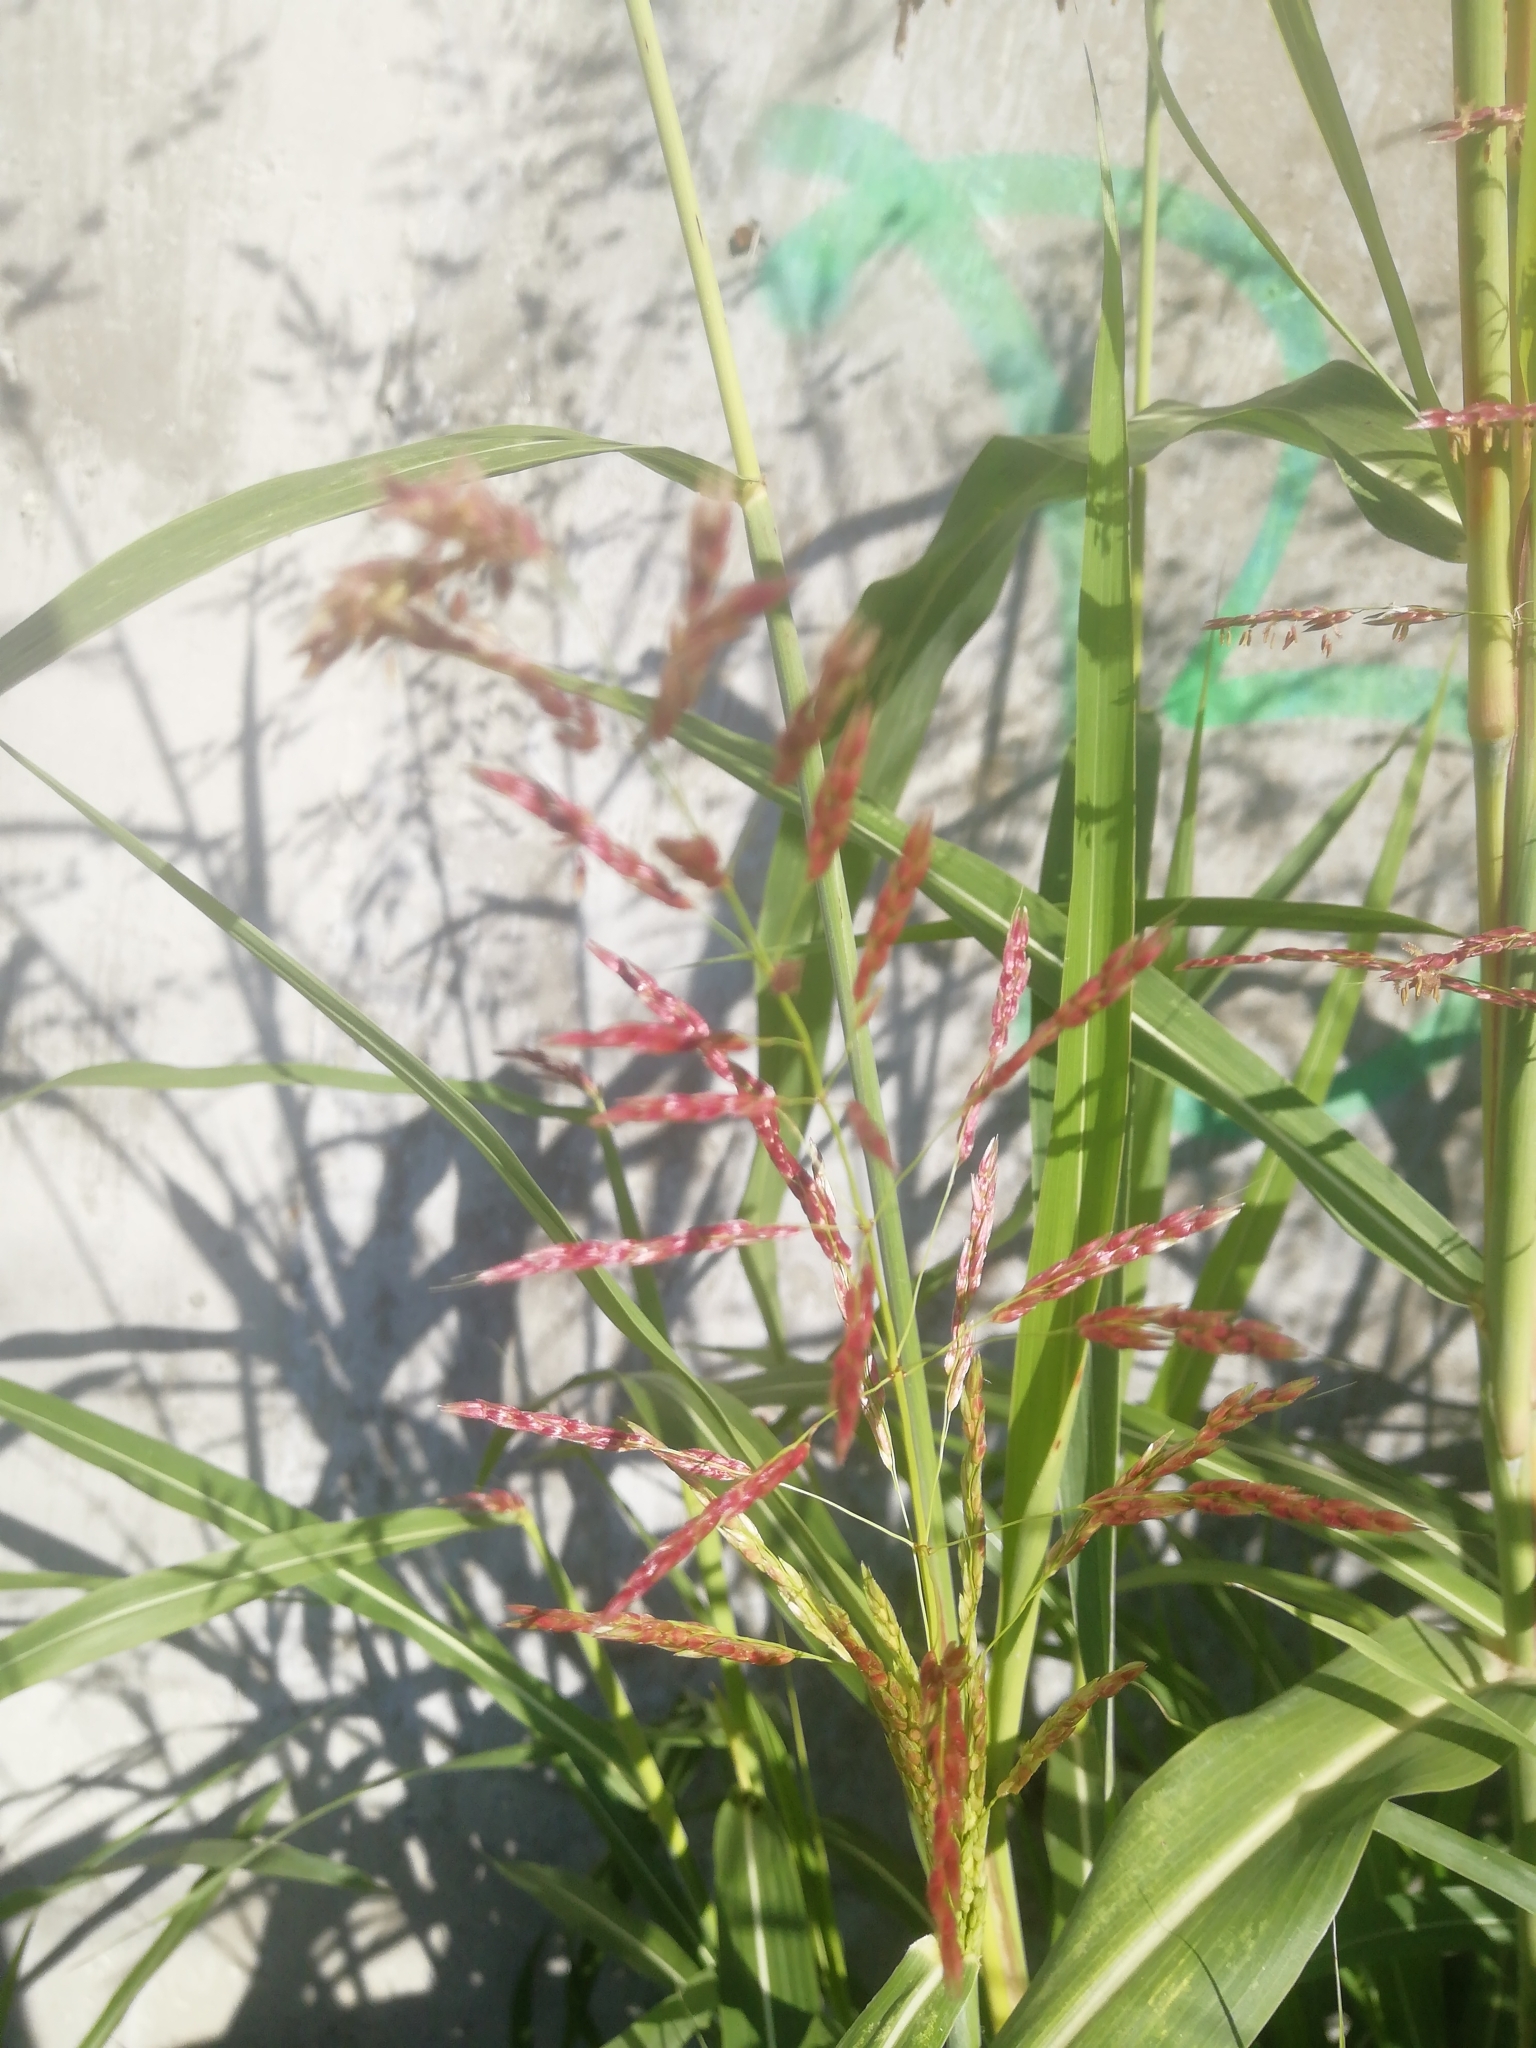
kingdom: Plantae
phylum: Tracheophyta
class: Liliopsida
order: Poales
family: Poaceae
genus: Sorghum
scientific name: Sorghum halepense
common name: Johnson-grass
